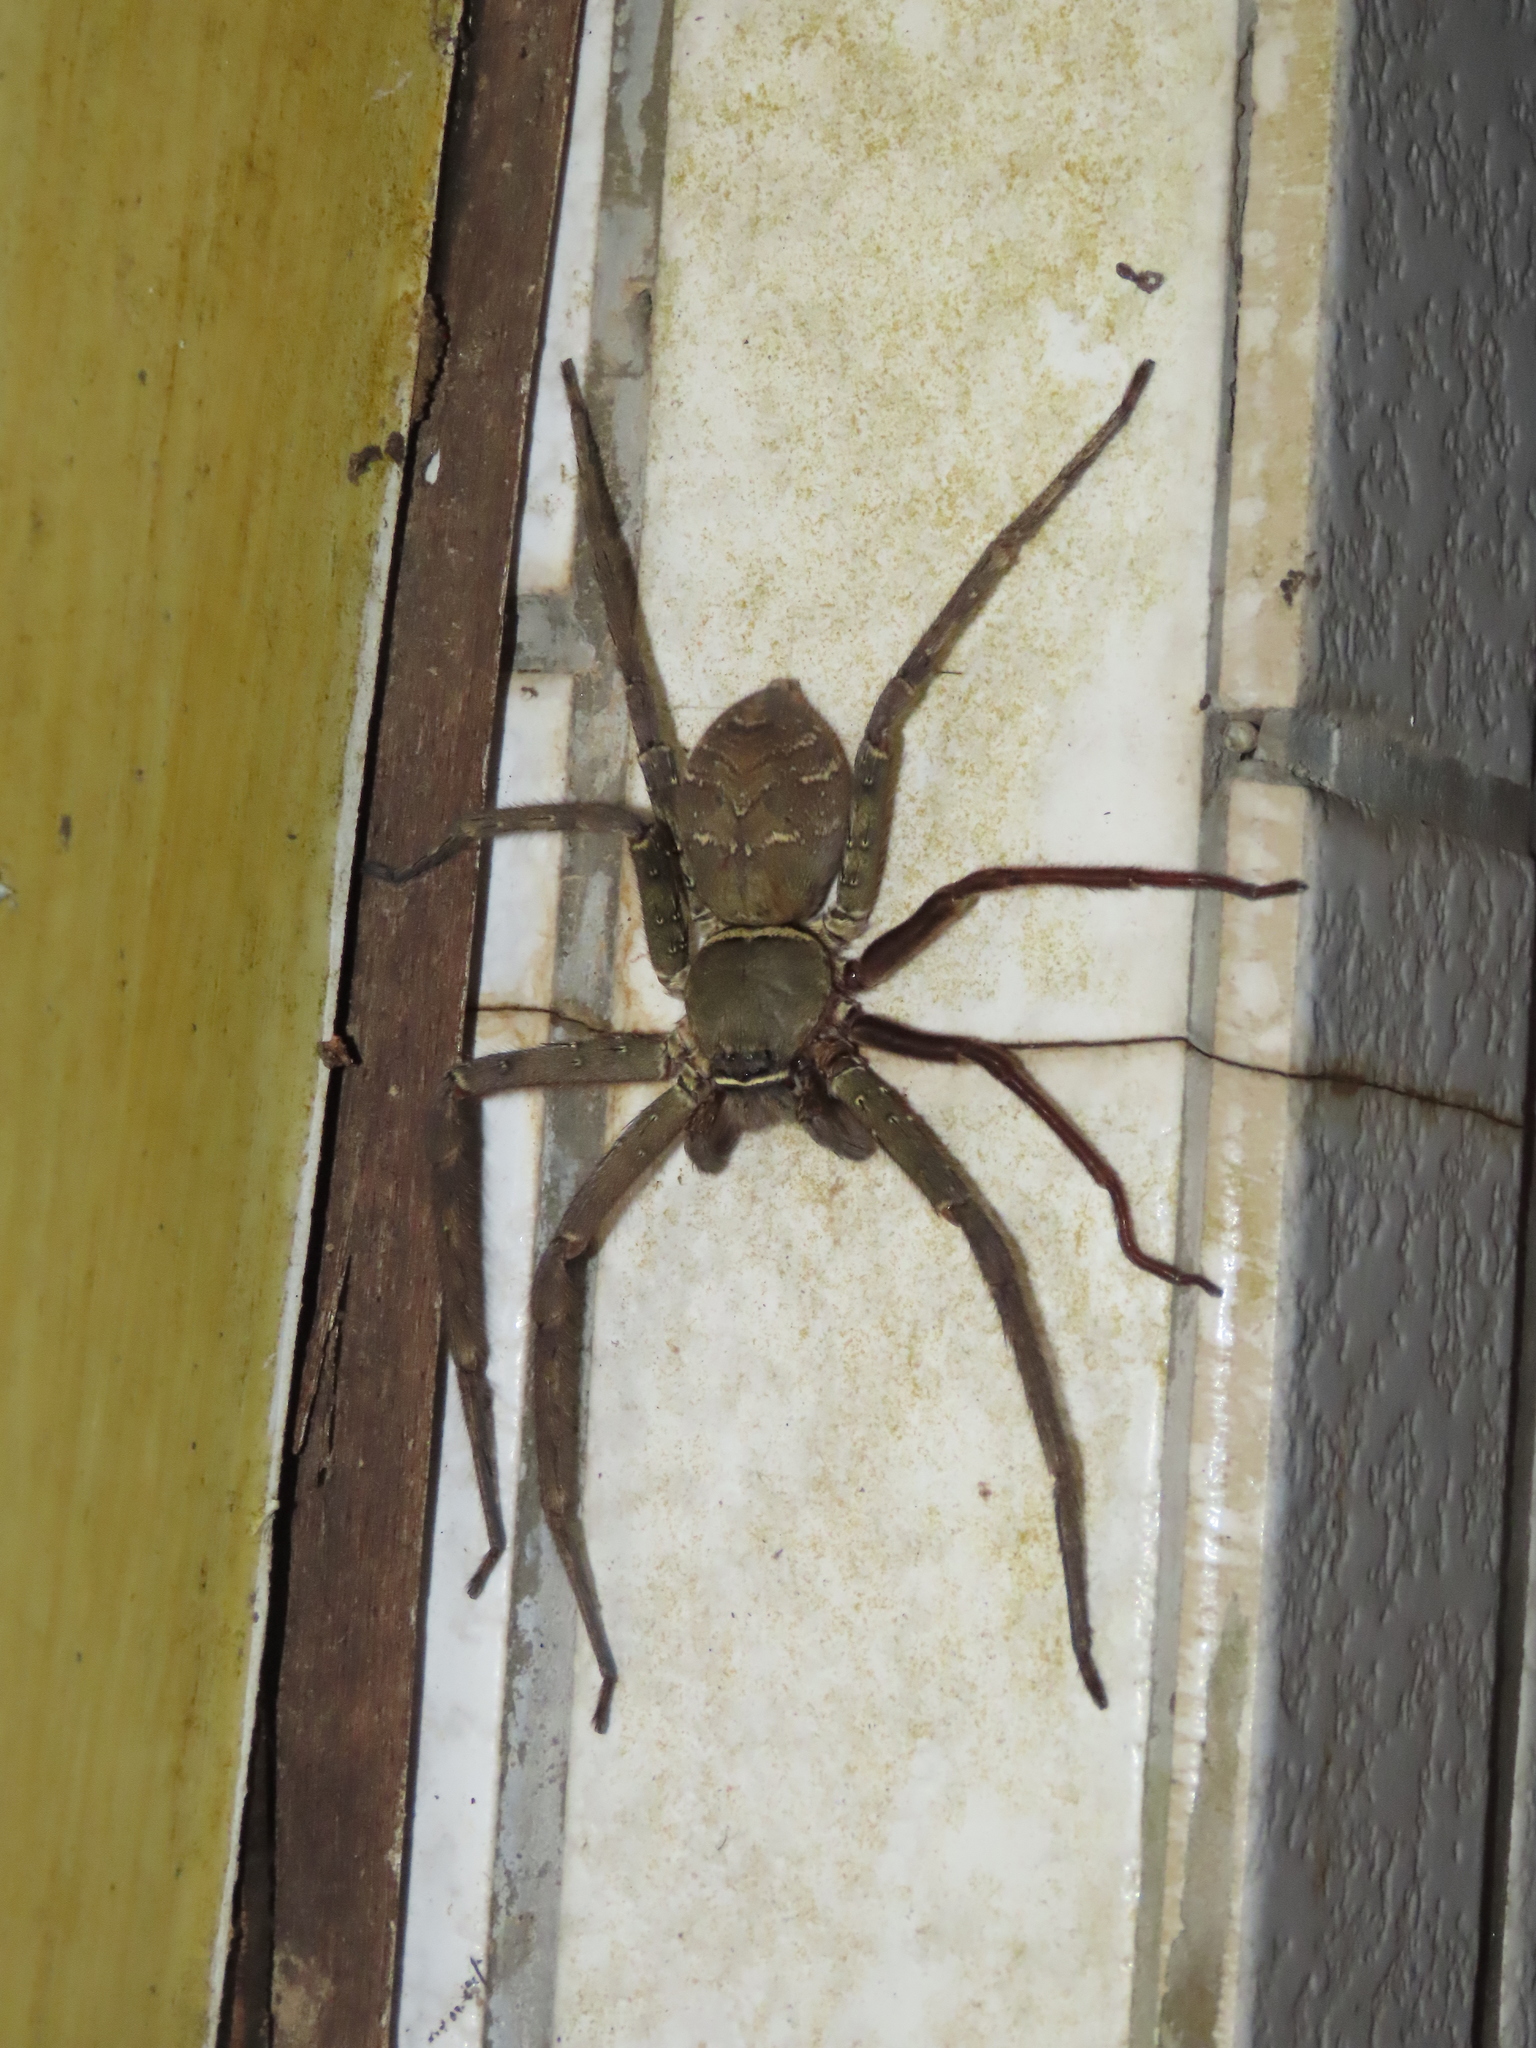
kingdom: Animalia
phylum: Arthropoda
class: Arachnida
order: Araneae
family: Sparassidae
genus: Heteropoda
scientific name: Heteropoda venatoria
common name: Huntsman spider
